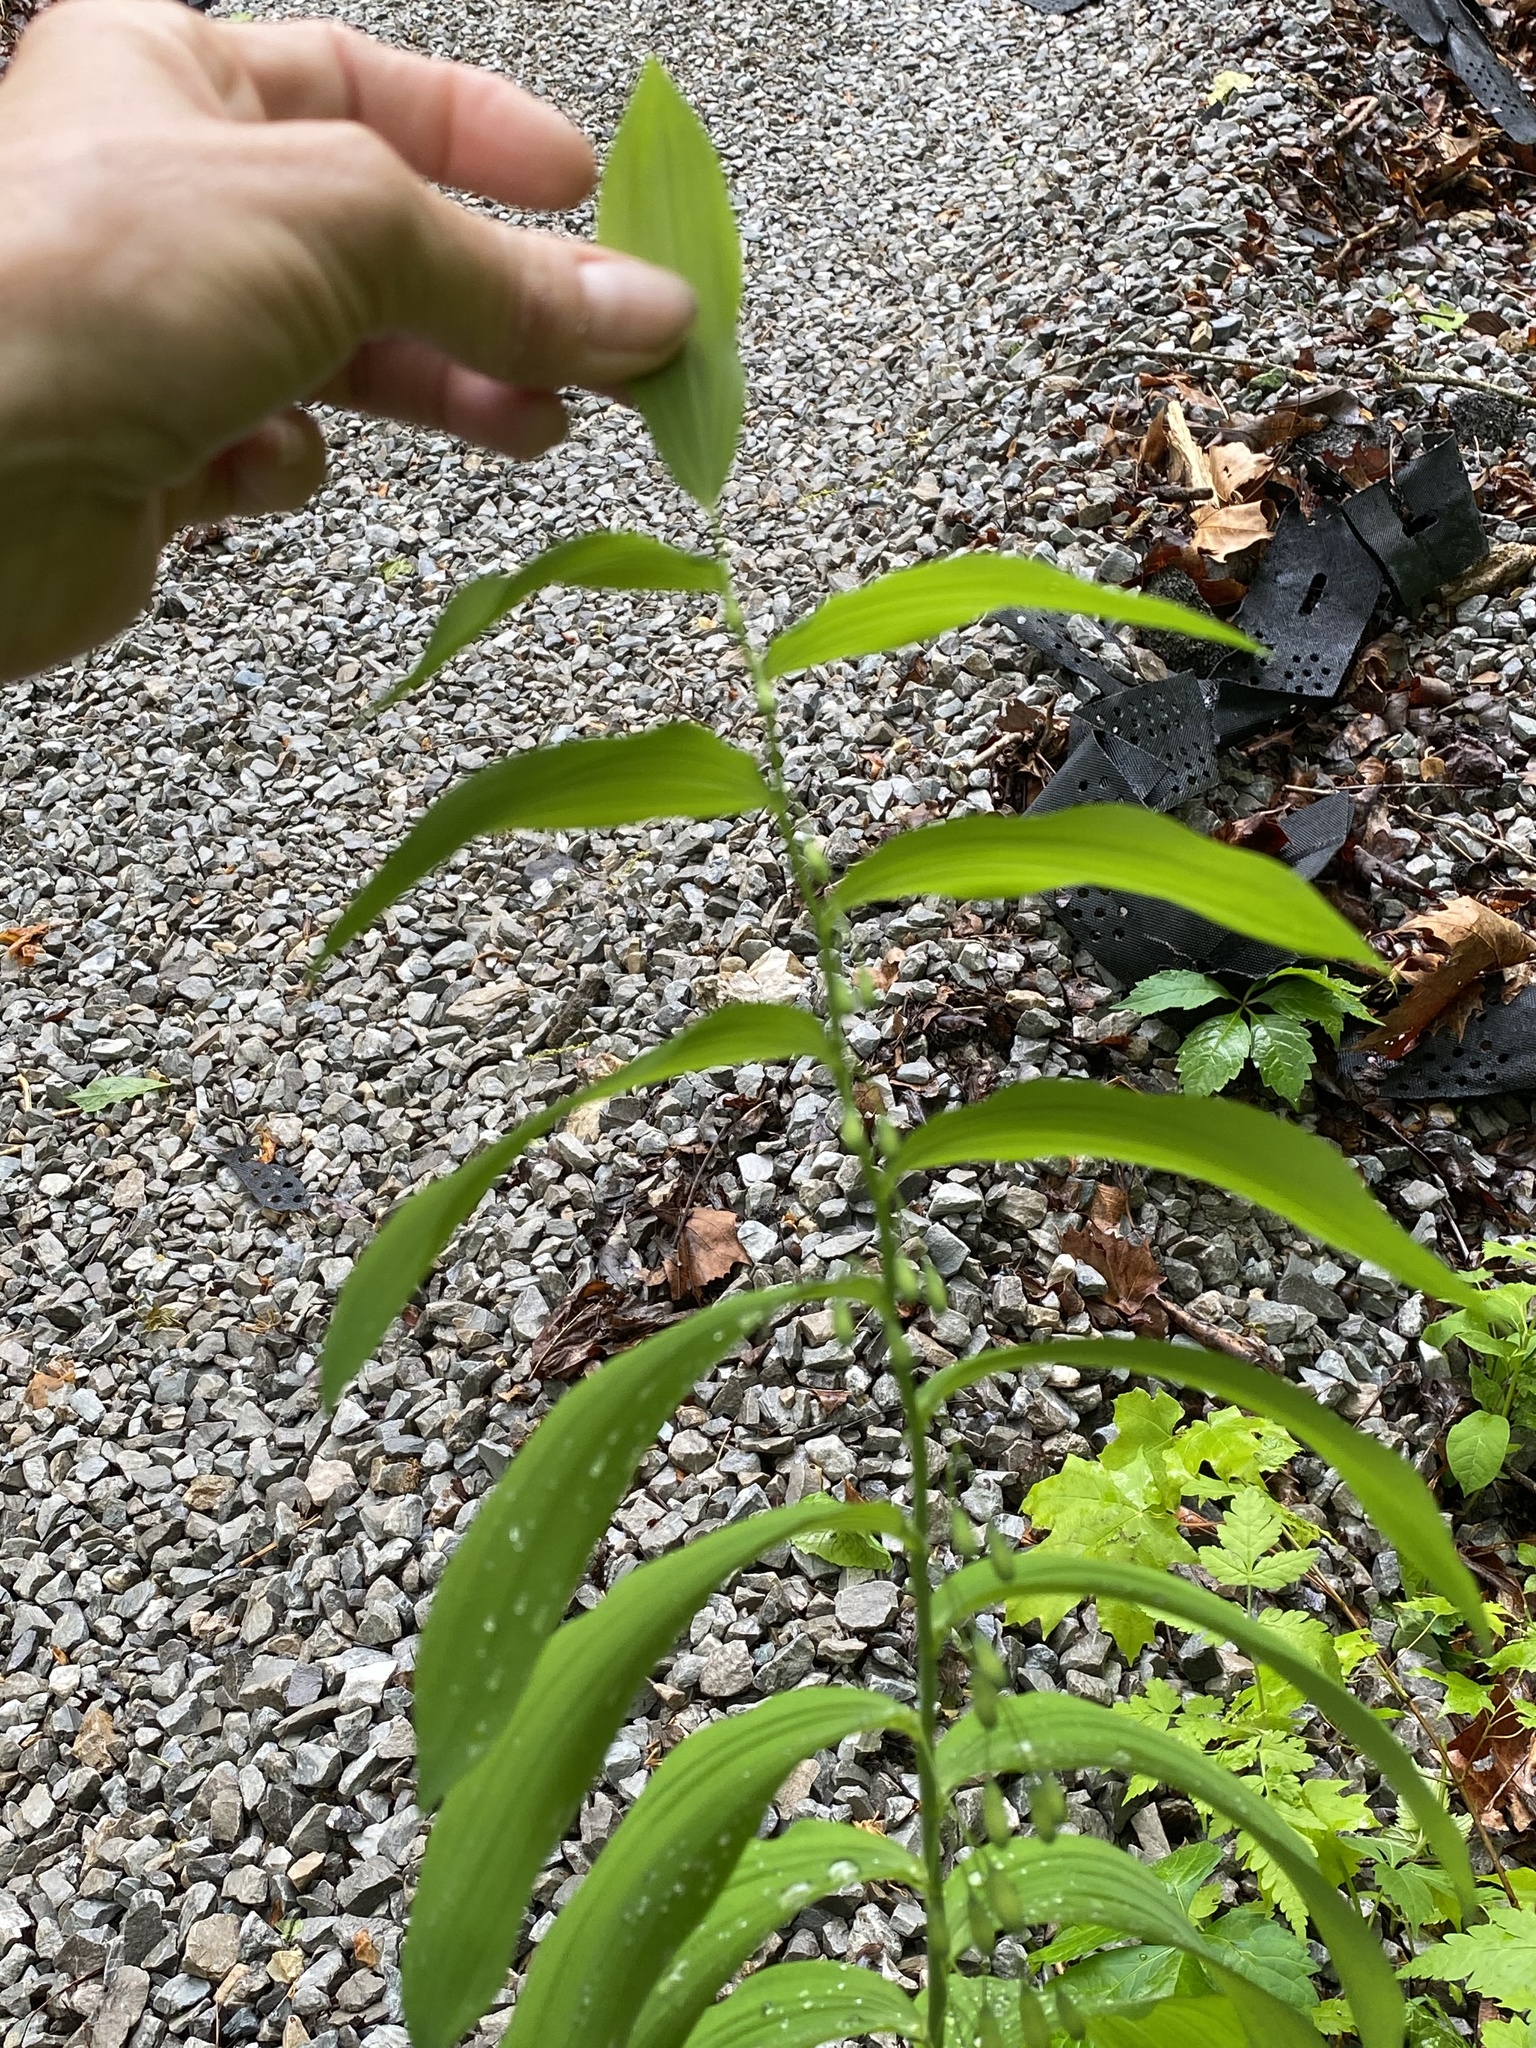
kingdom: Plantae
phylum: Tracheophyta
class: Liliopsida
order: Asparagales
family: Asparagaceae
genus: Polygonatum
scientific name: Polygonatum biflorum
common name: American solomon's-seal
